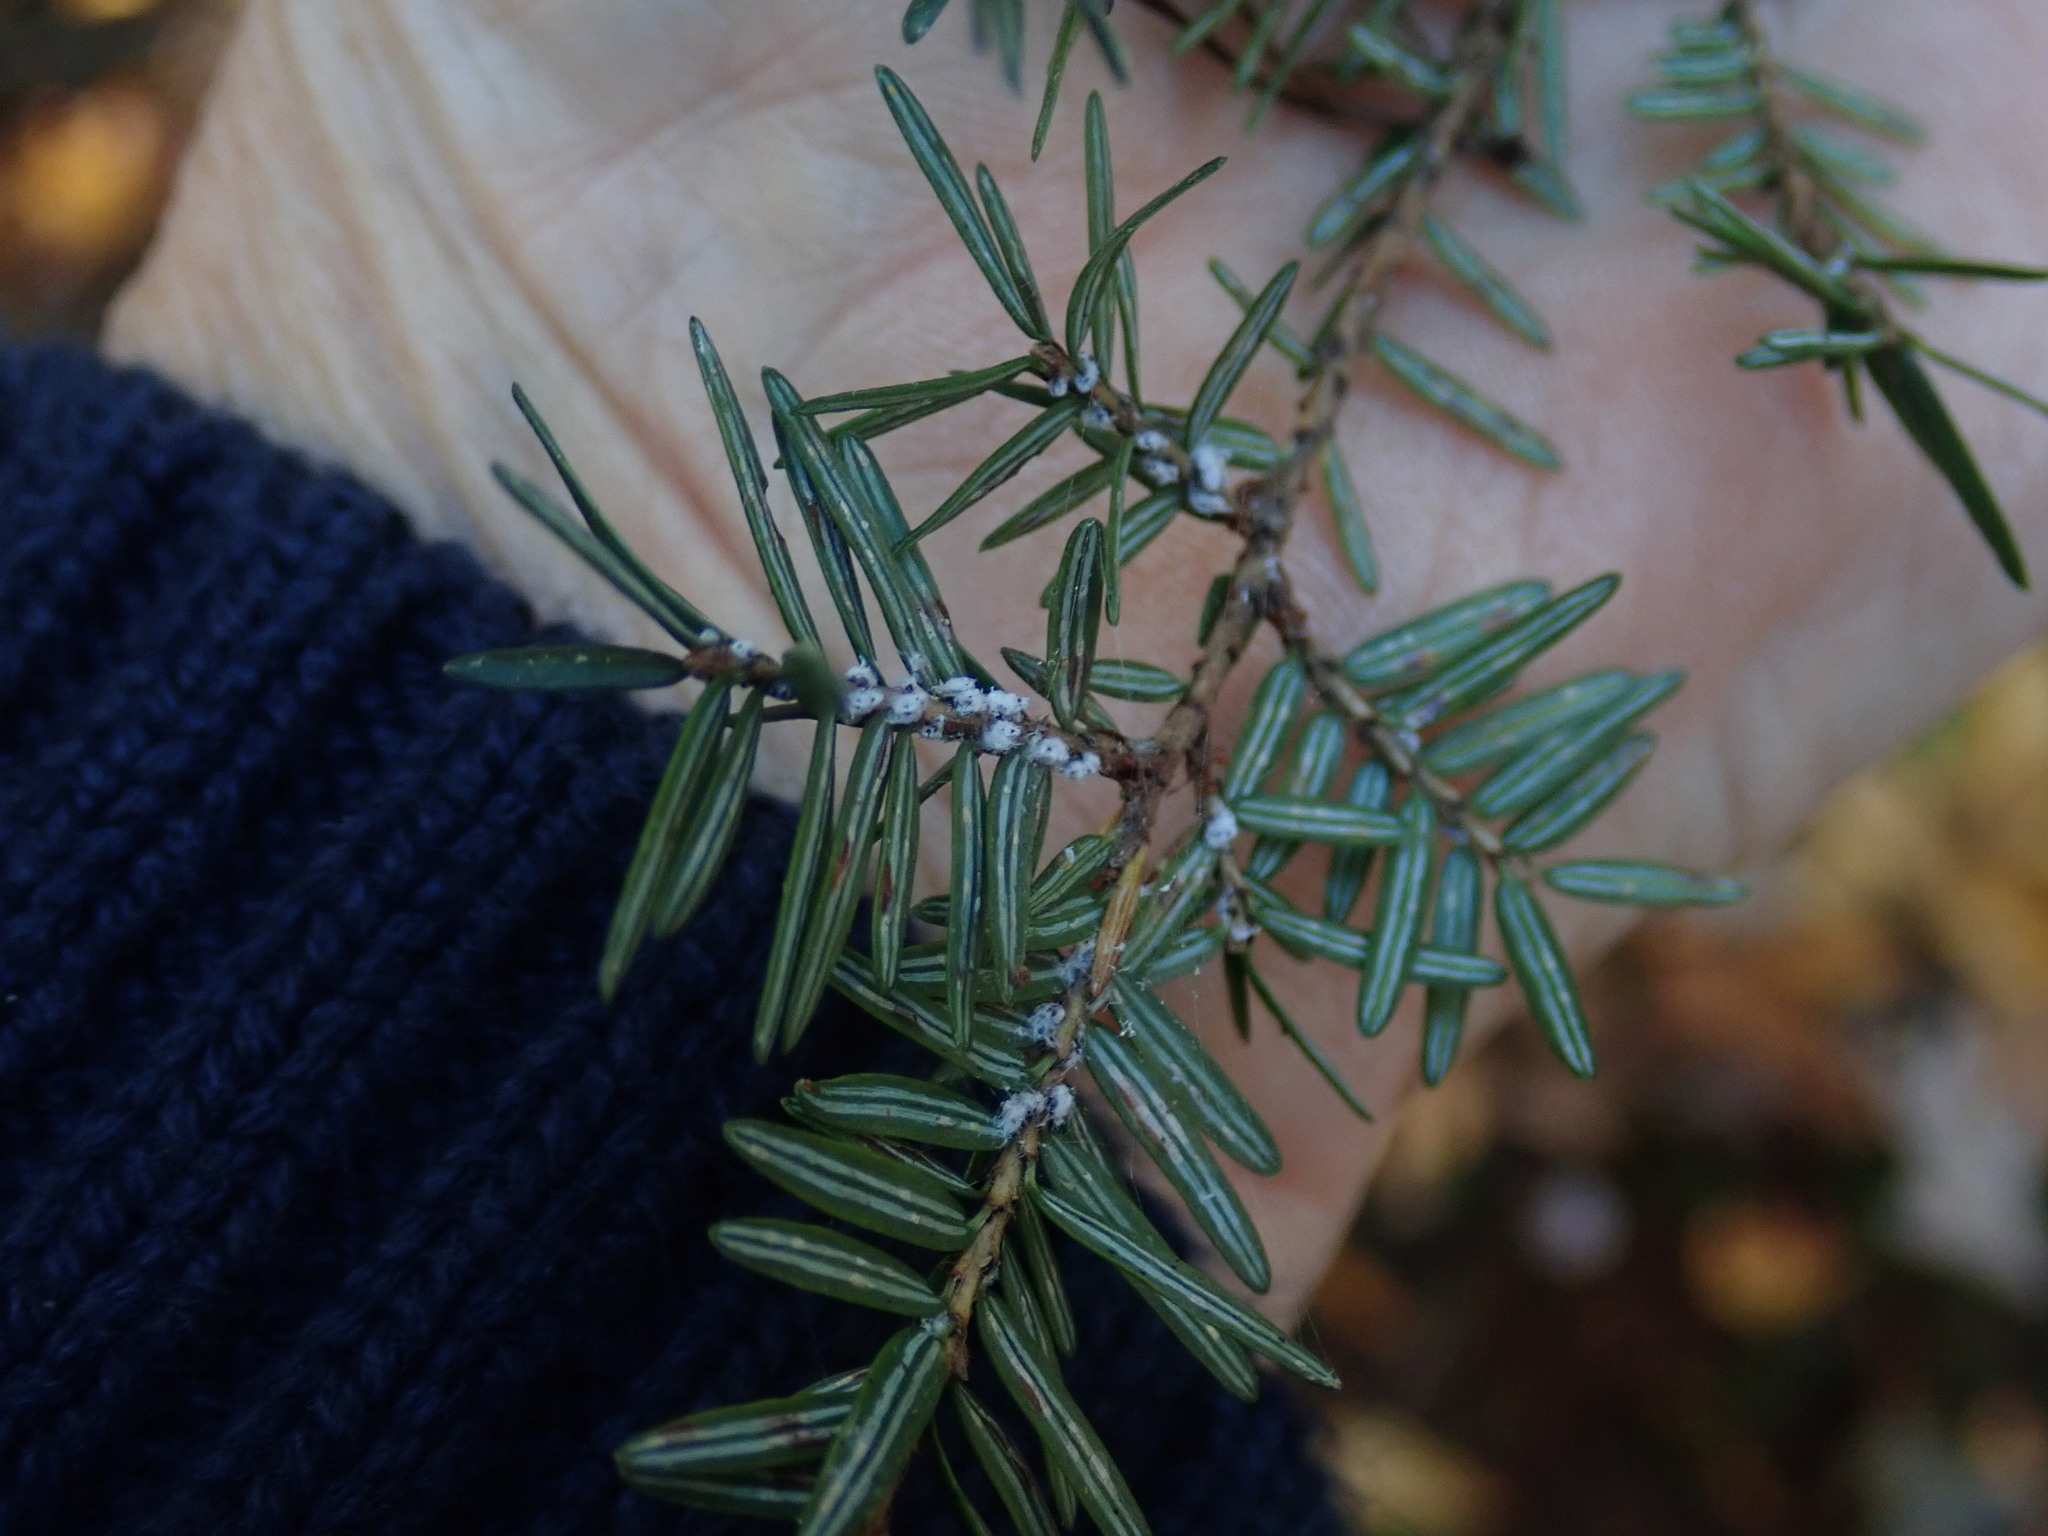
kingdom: Animalia
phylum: Arthropoda
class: Insecta
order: Hemiptera
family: Adelgidae
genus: Adelges
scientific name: Adelges tsugae
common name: Hemlock woolly adelgid
